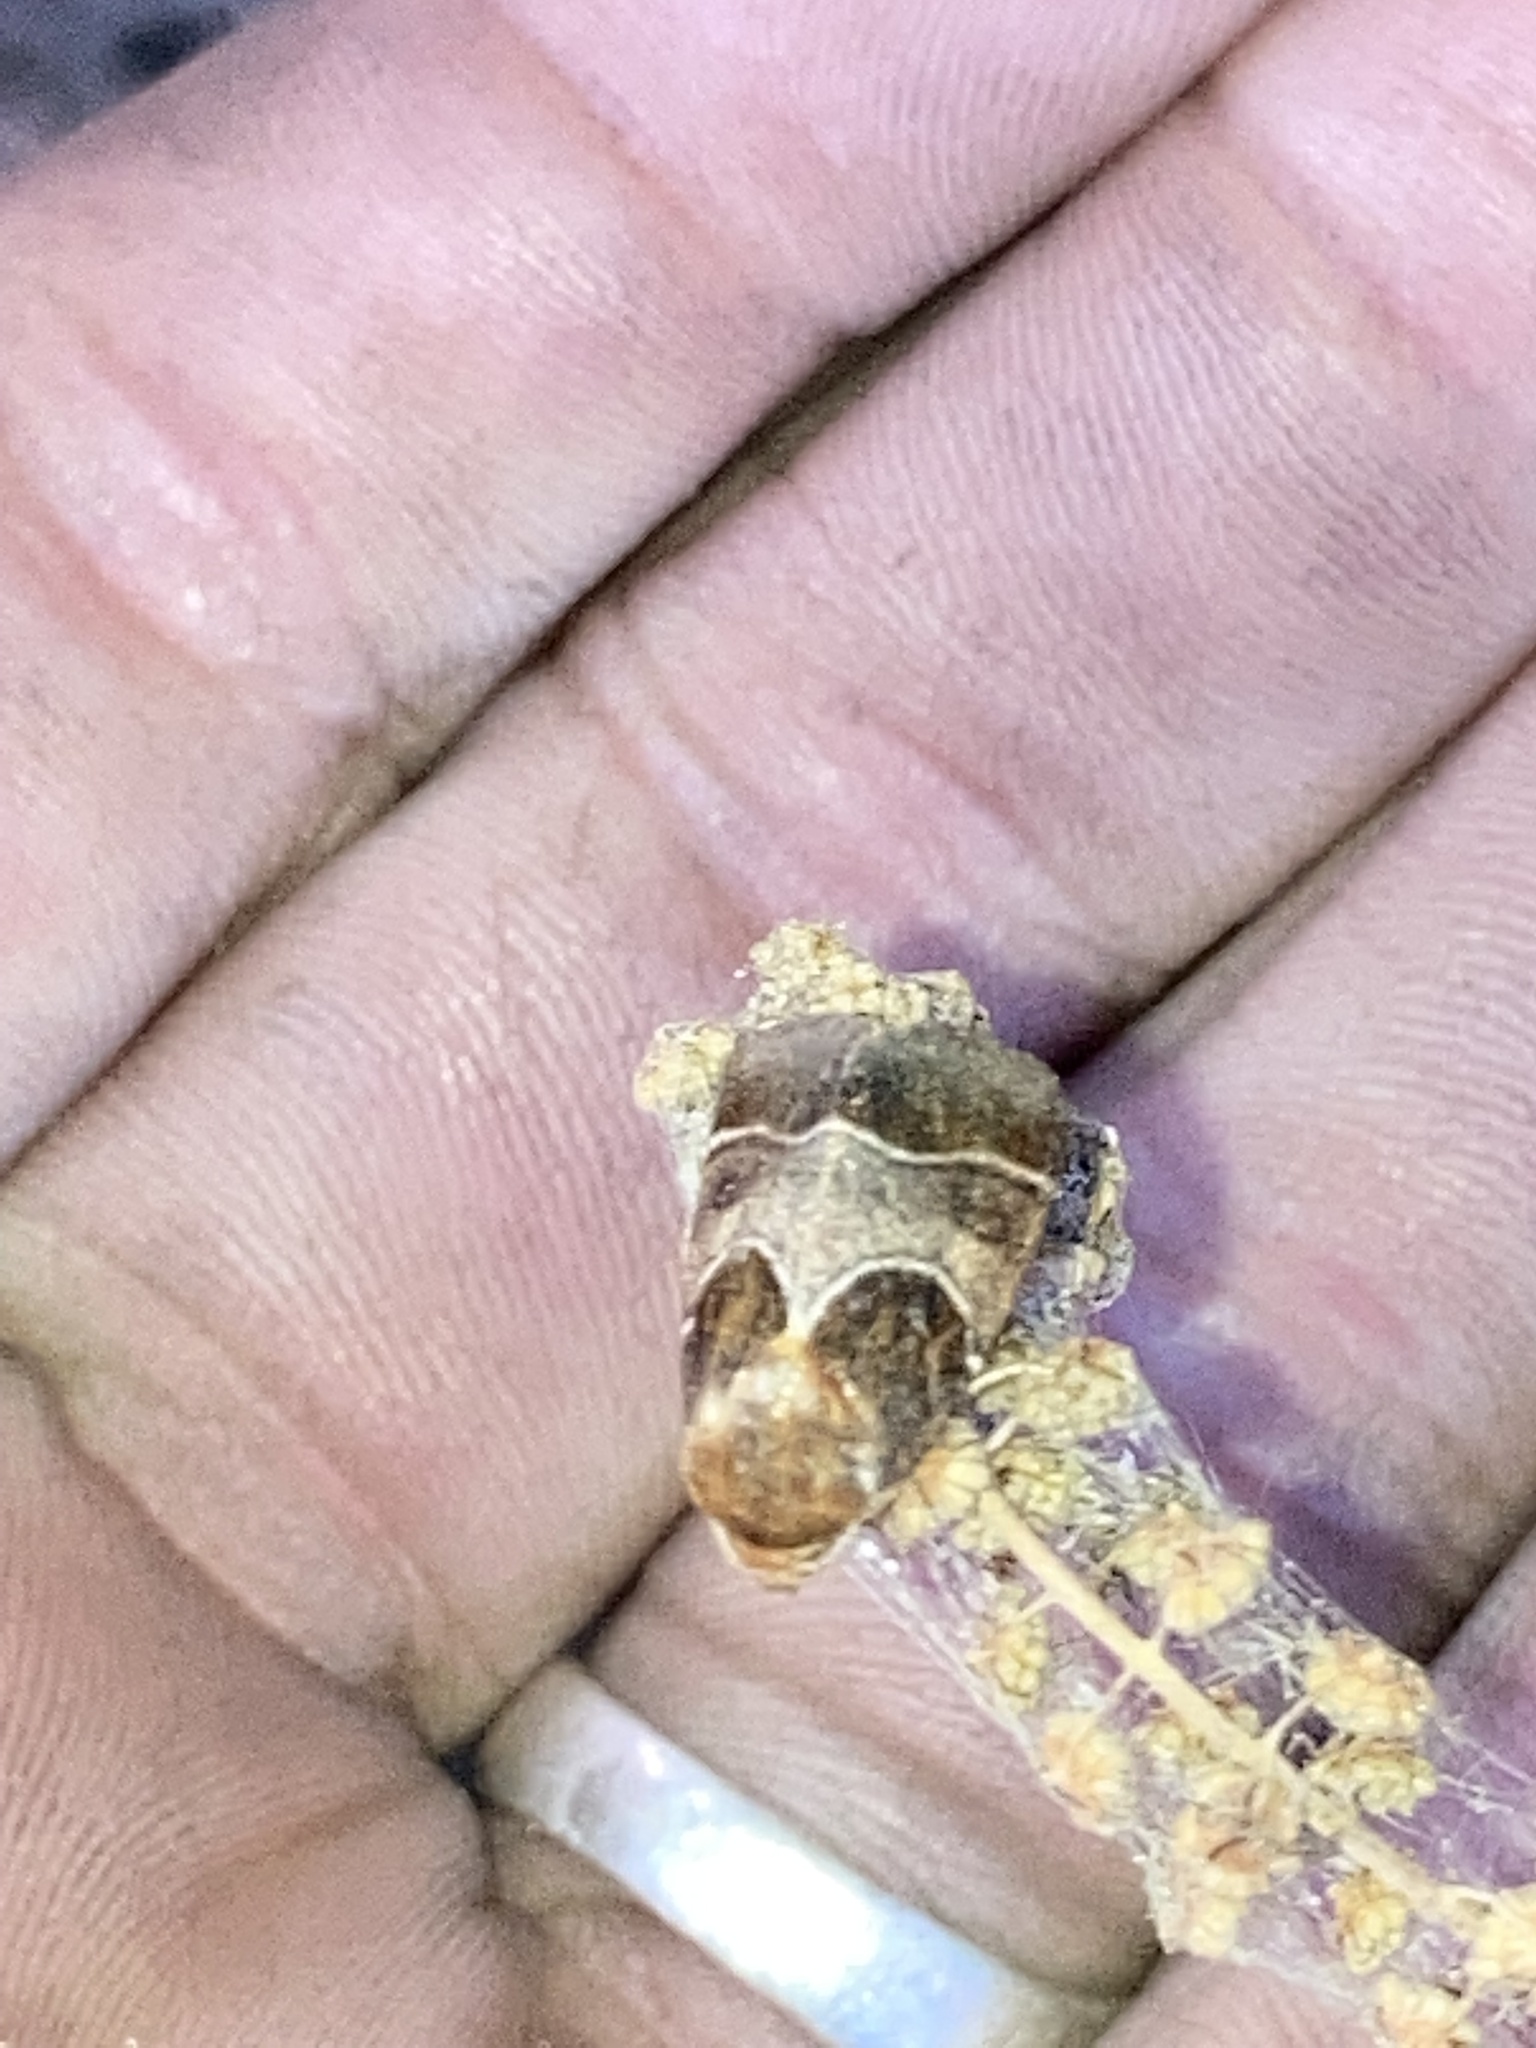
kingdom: Animalia
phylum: Arthropoda
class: Insecta
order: Lepidoptera
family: Noctuidae
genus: Schinia
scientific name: Schinia arcigera
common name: Arcigera flower moth
